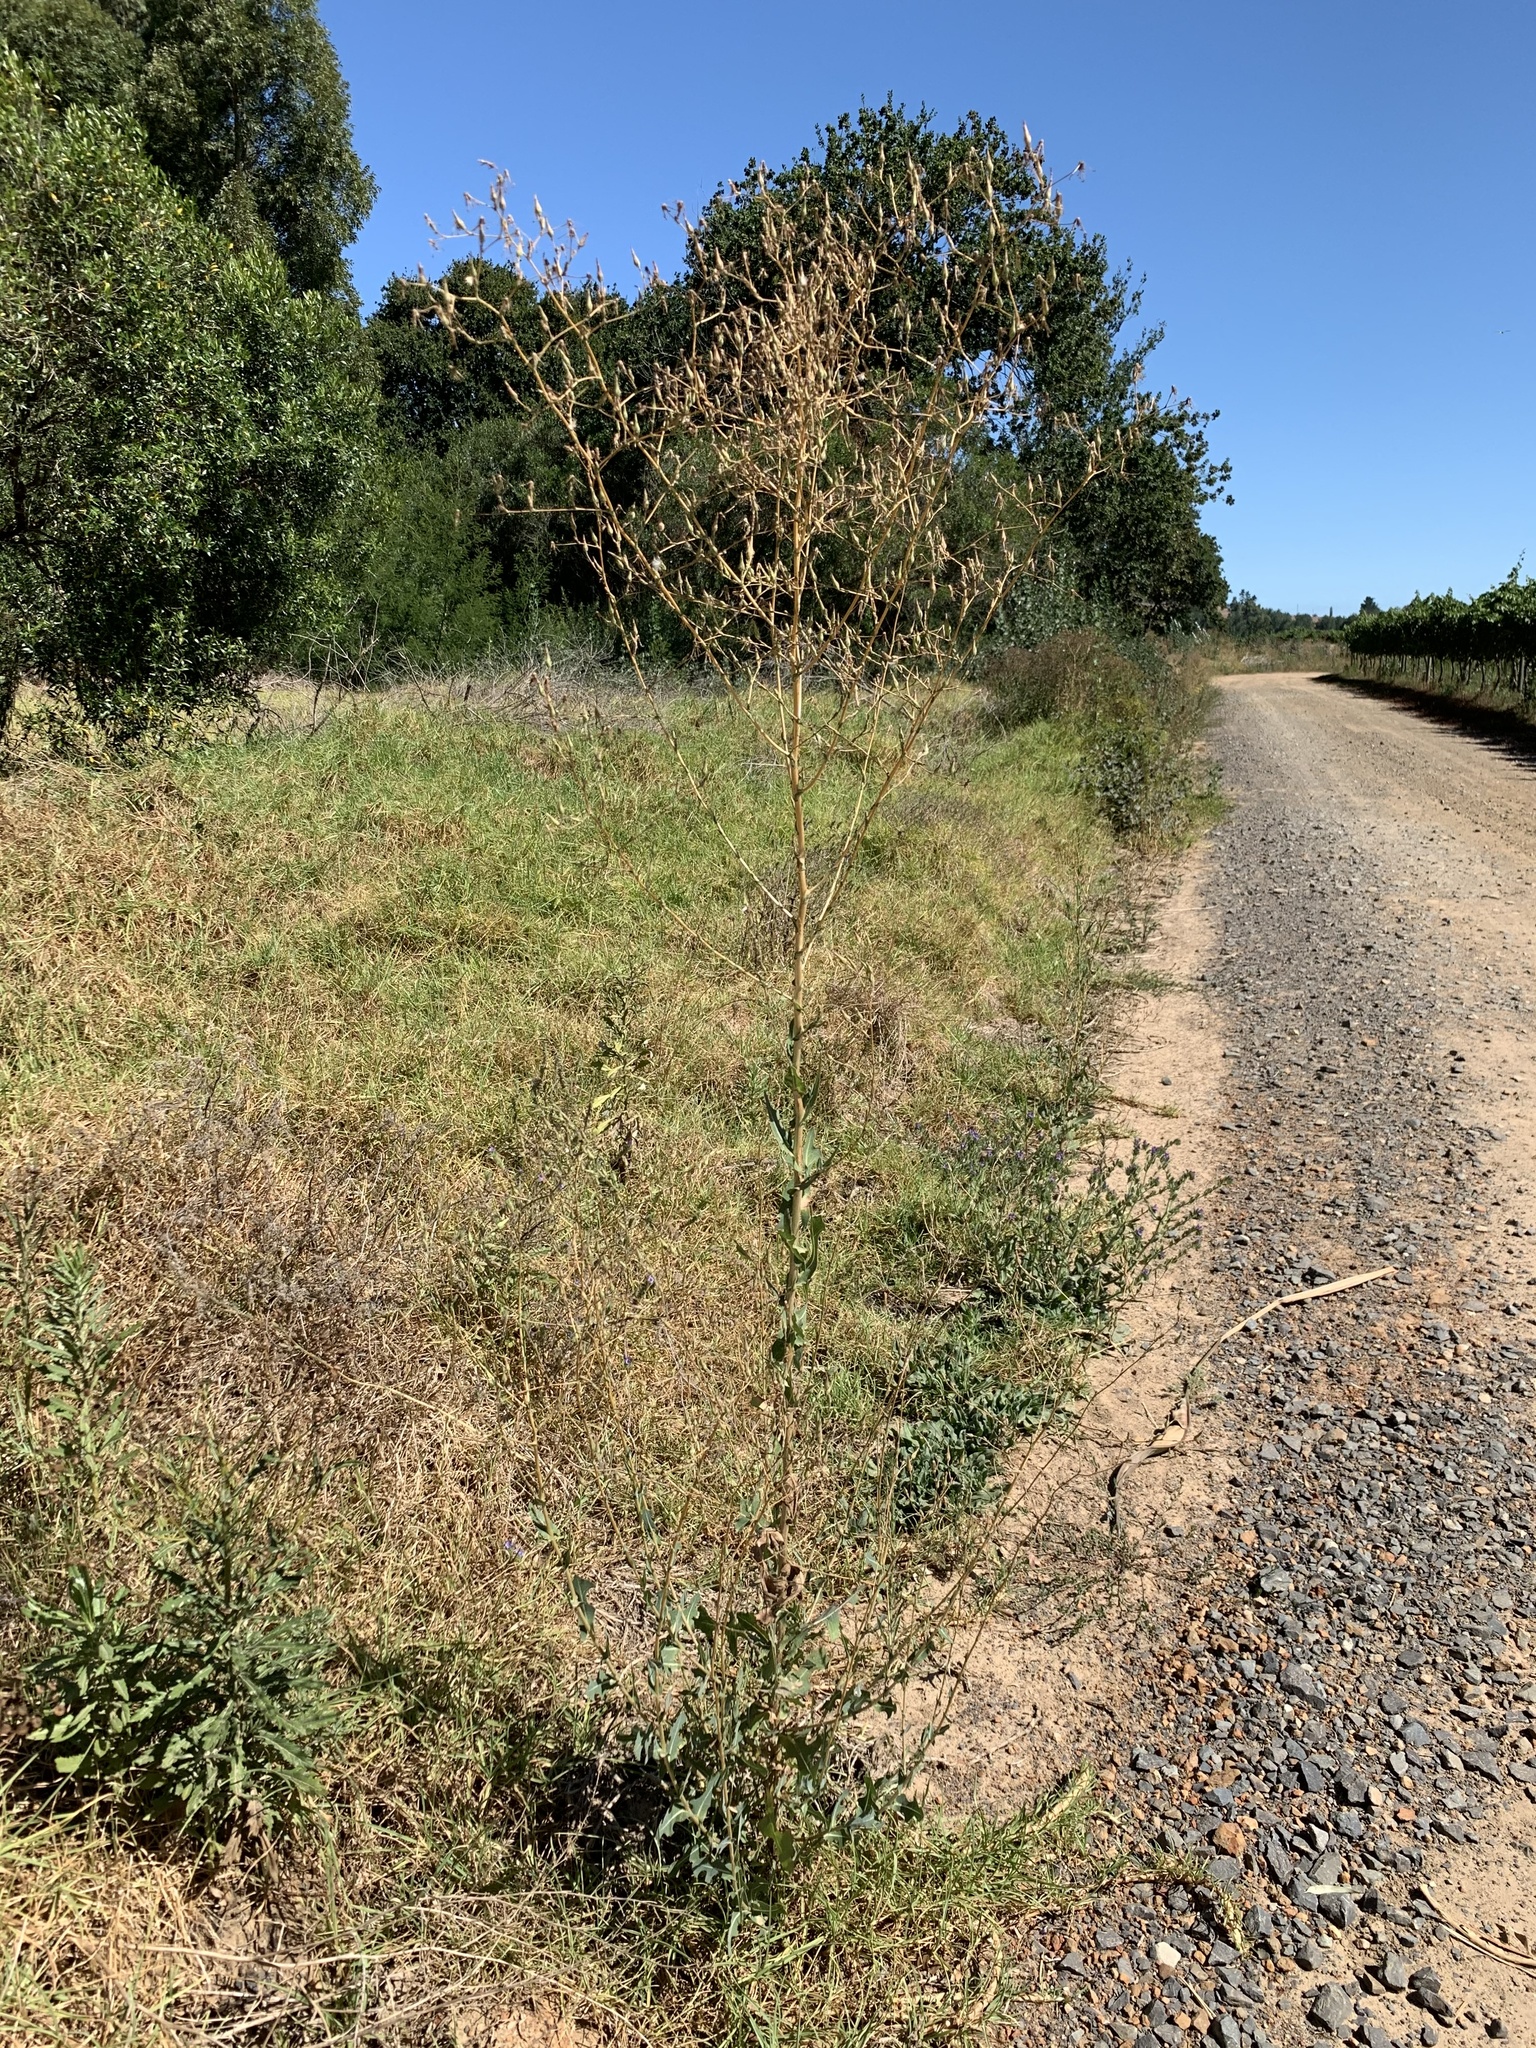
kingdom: Plantae
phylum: Tracheophyta
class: Magnoliopsida
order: Asterales
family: Asteraceae
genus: Lactuca
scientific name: Lactuca serriola
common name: Prickly lettuce
